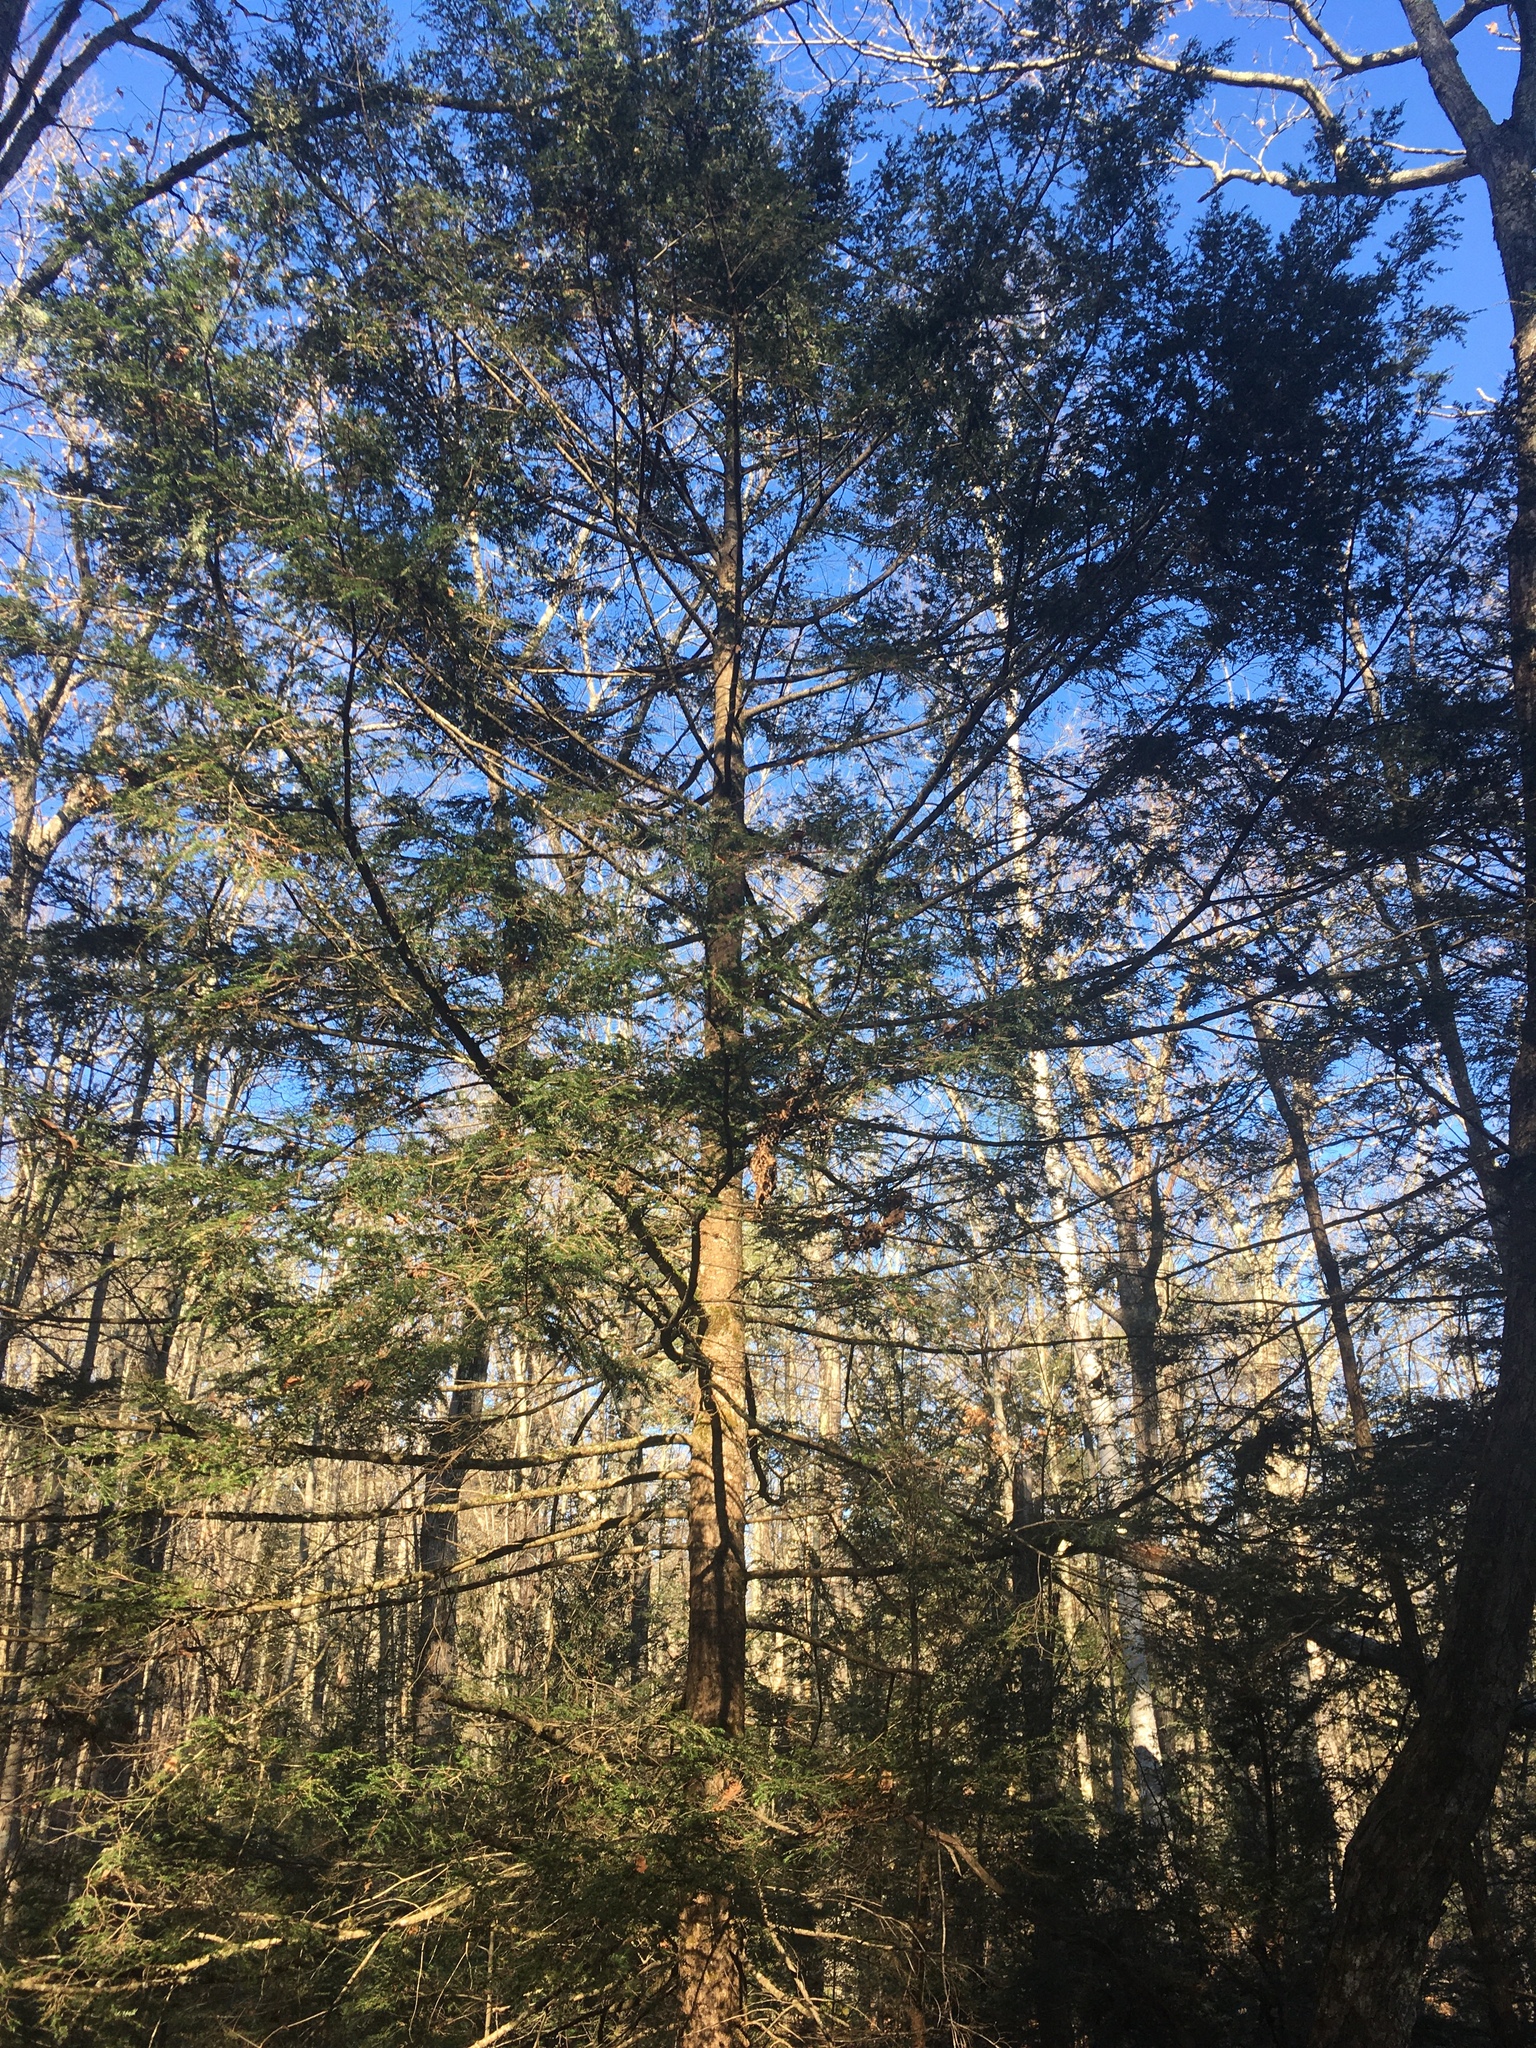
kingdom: Plantae
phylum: Tracheophyta
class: Pinopsida
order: Pinales
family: Pinaceae
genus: Tsuga
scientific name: Tsuga canadensis
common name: Eastern hemlock
